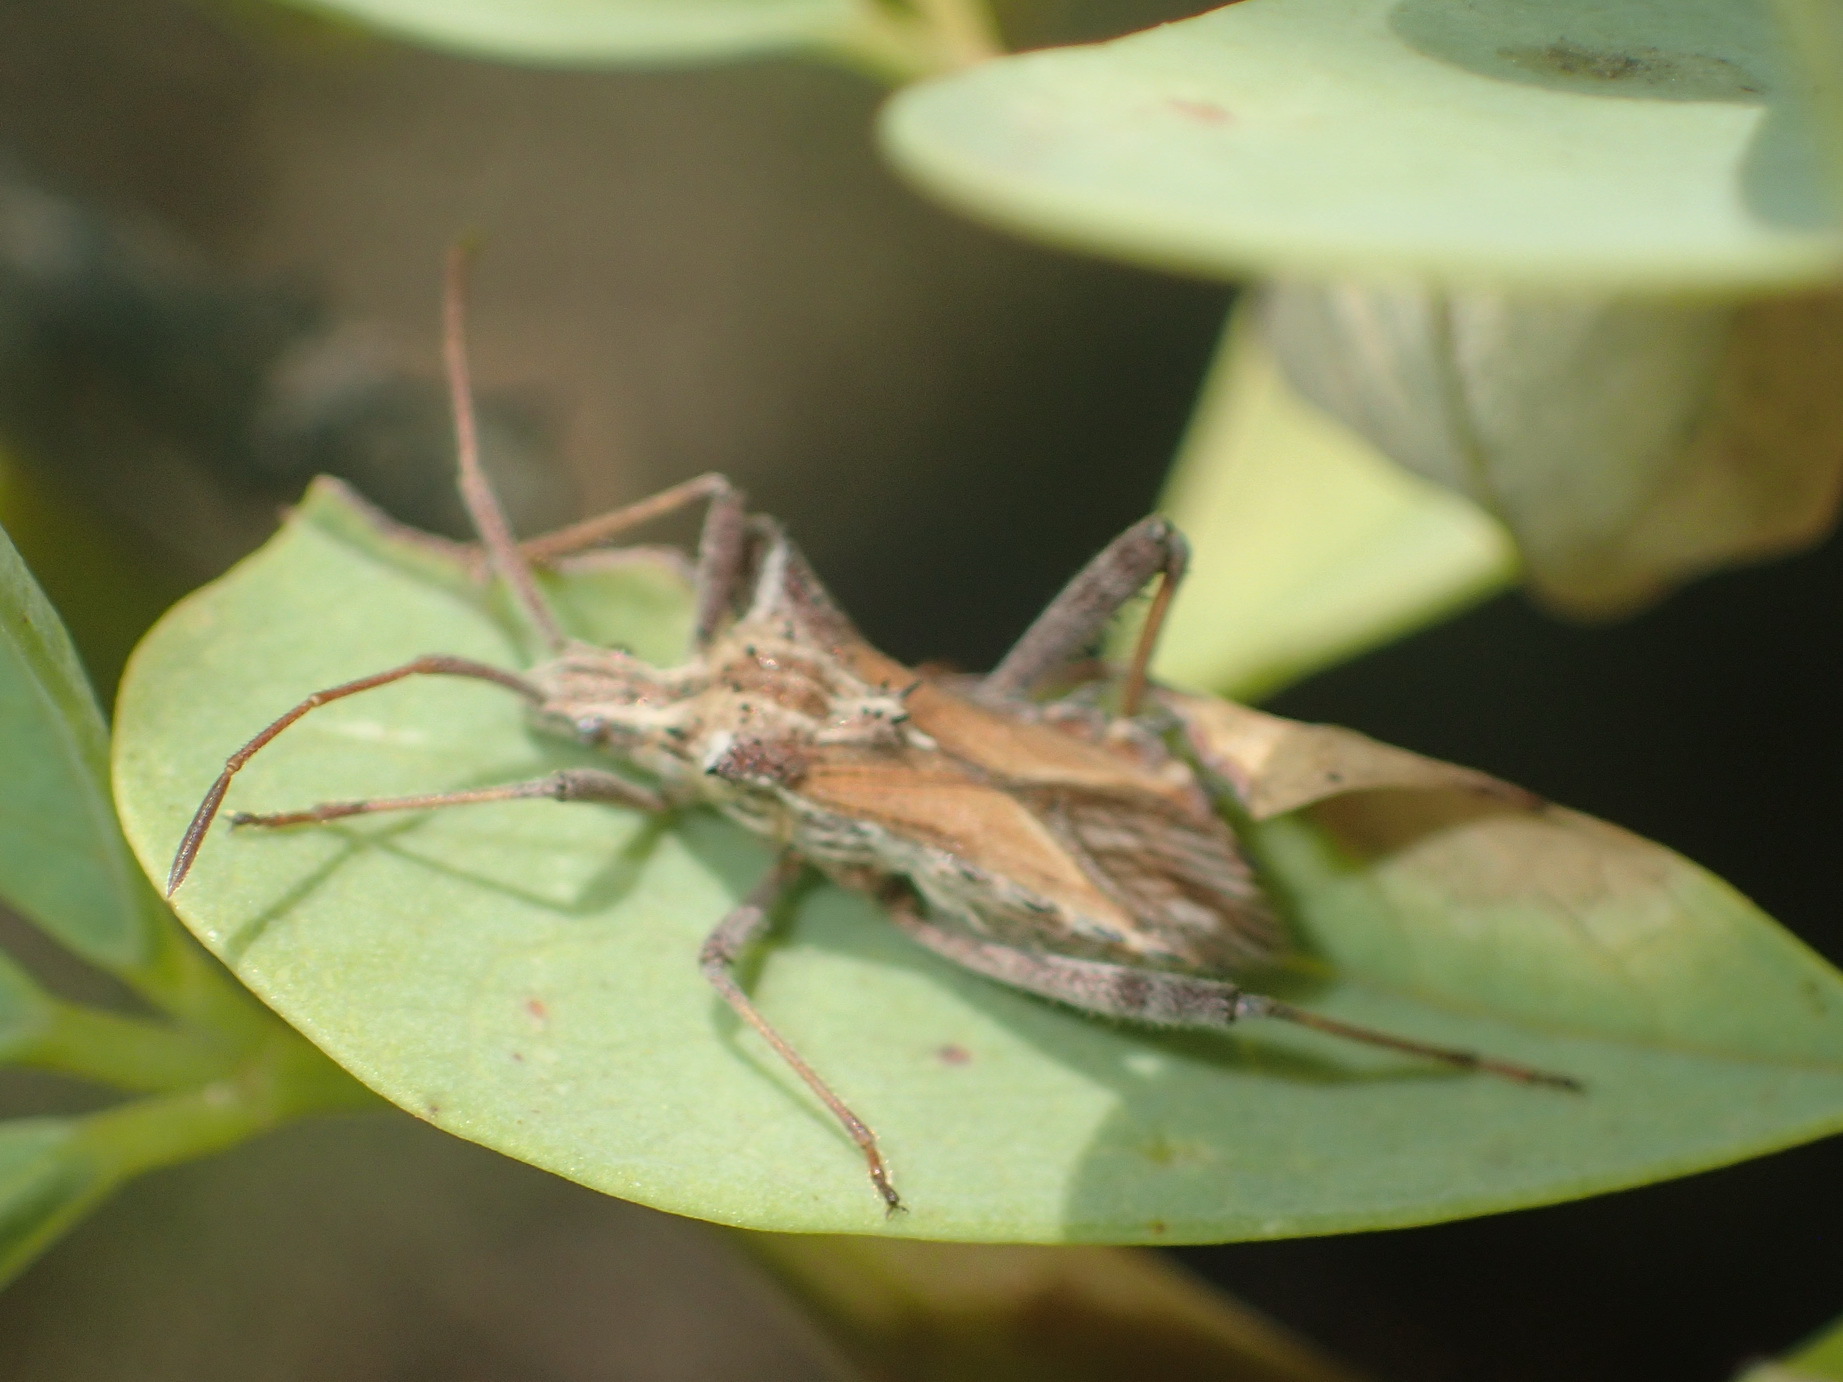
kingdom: Animalia
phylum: Arthropoda
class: Insecta
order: Hemiptera
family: Coreidae
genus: Clavigralla
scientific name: Clavigralla horrida
